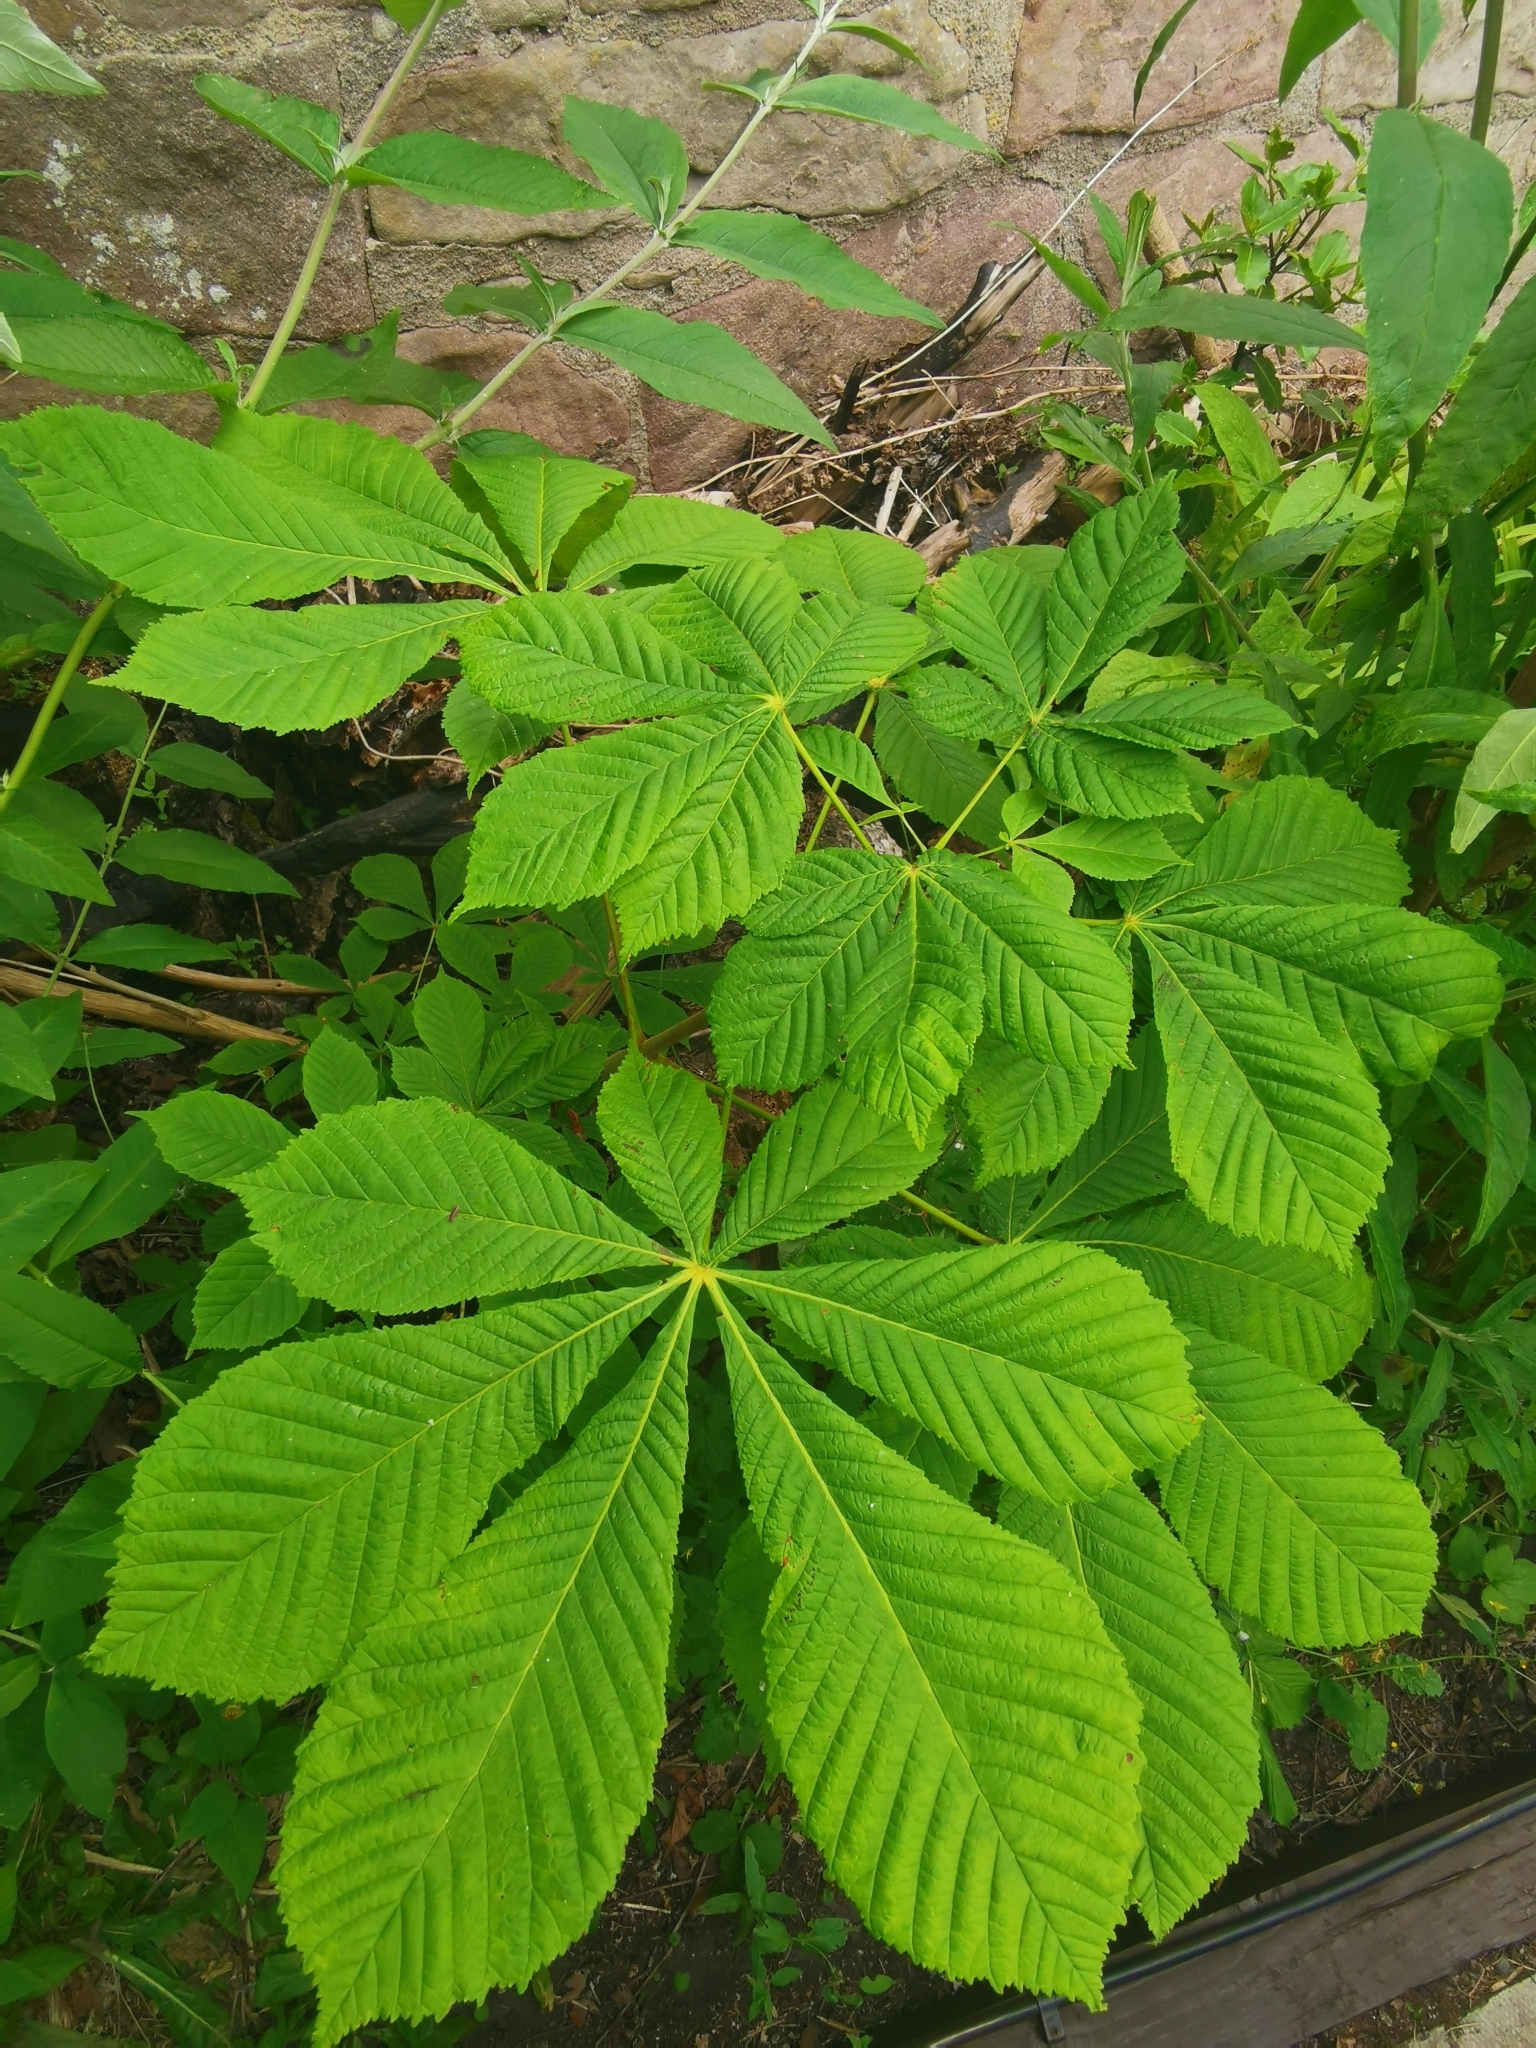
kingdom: Plantae
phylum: Tracheophyta
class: Magnoliopsida
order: Sapindales
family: Sapindaceae
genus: Aesculus
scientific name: Aesculus hippocastanum
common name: Horse-chestnut
